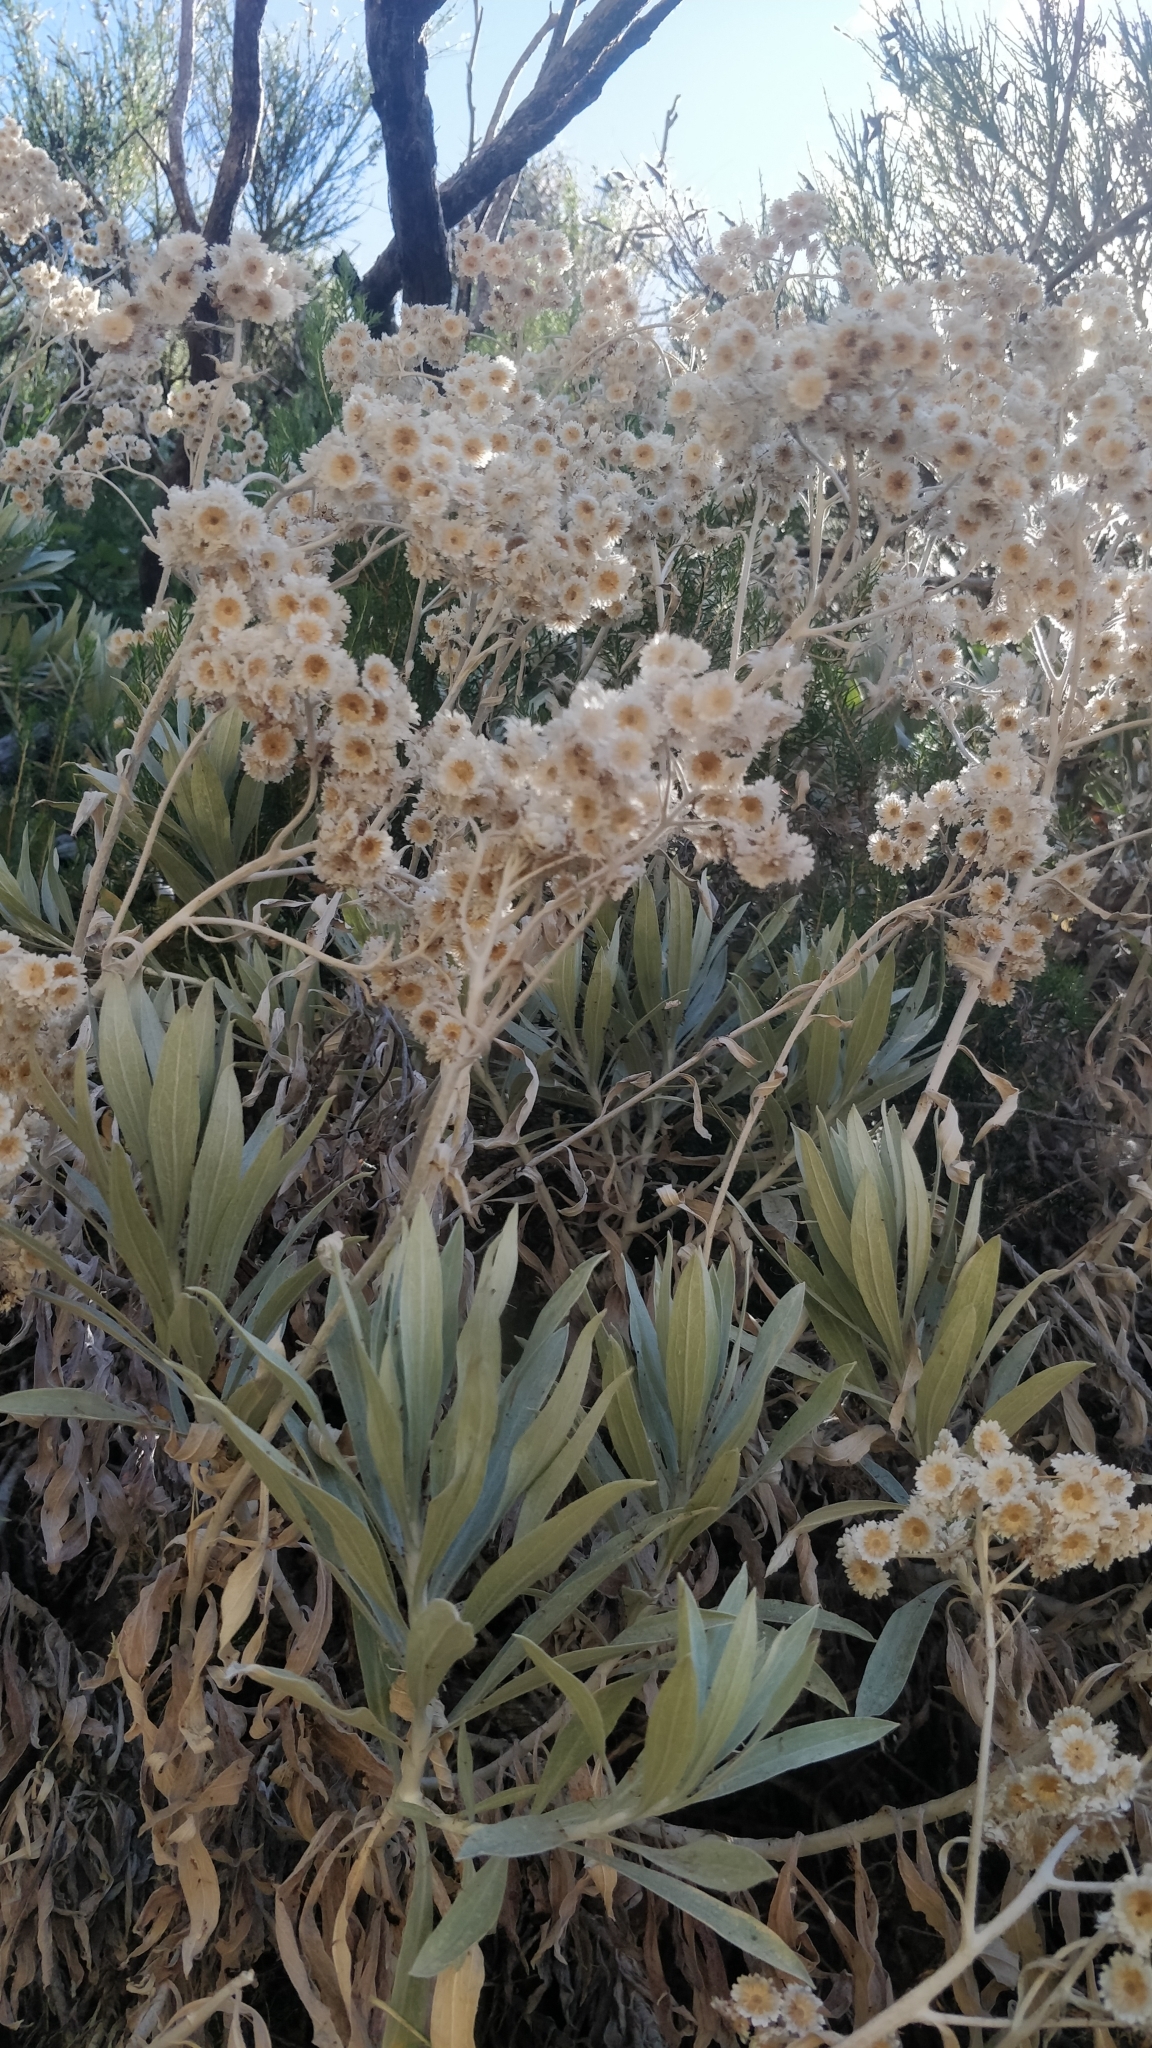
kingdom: Plantae
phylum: Tracheophyta
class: Magnoliopsida
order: Asterales
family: Asteraceae
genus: Helichrysum
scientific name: Helichrysum melaleucum
